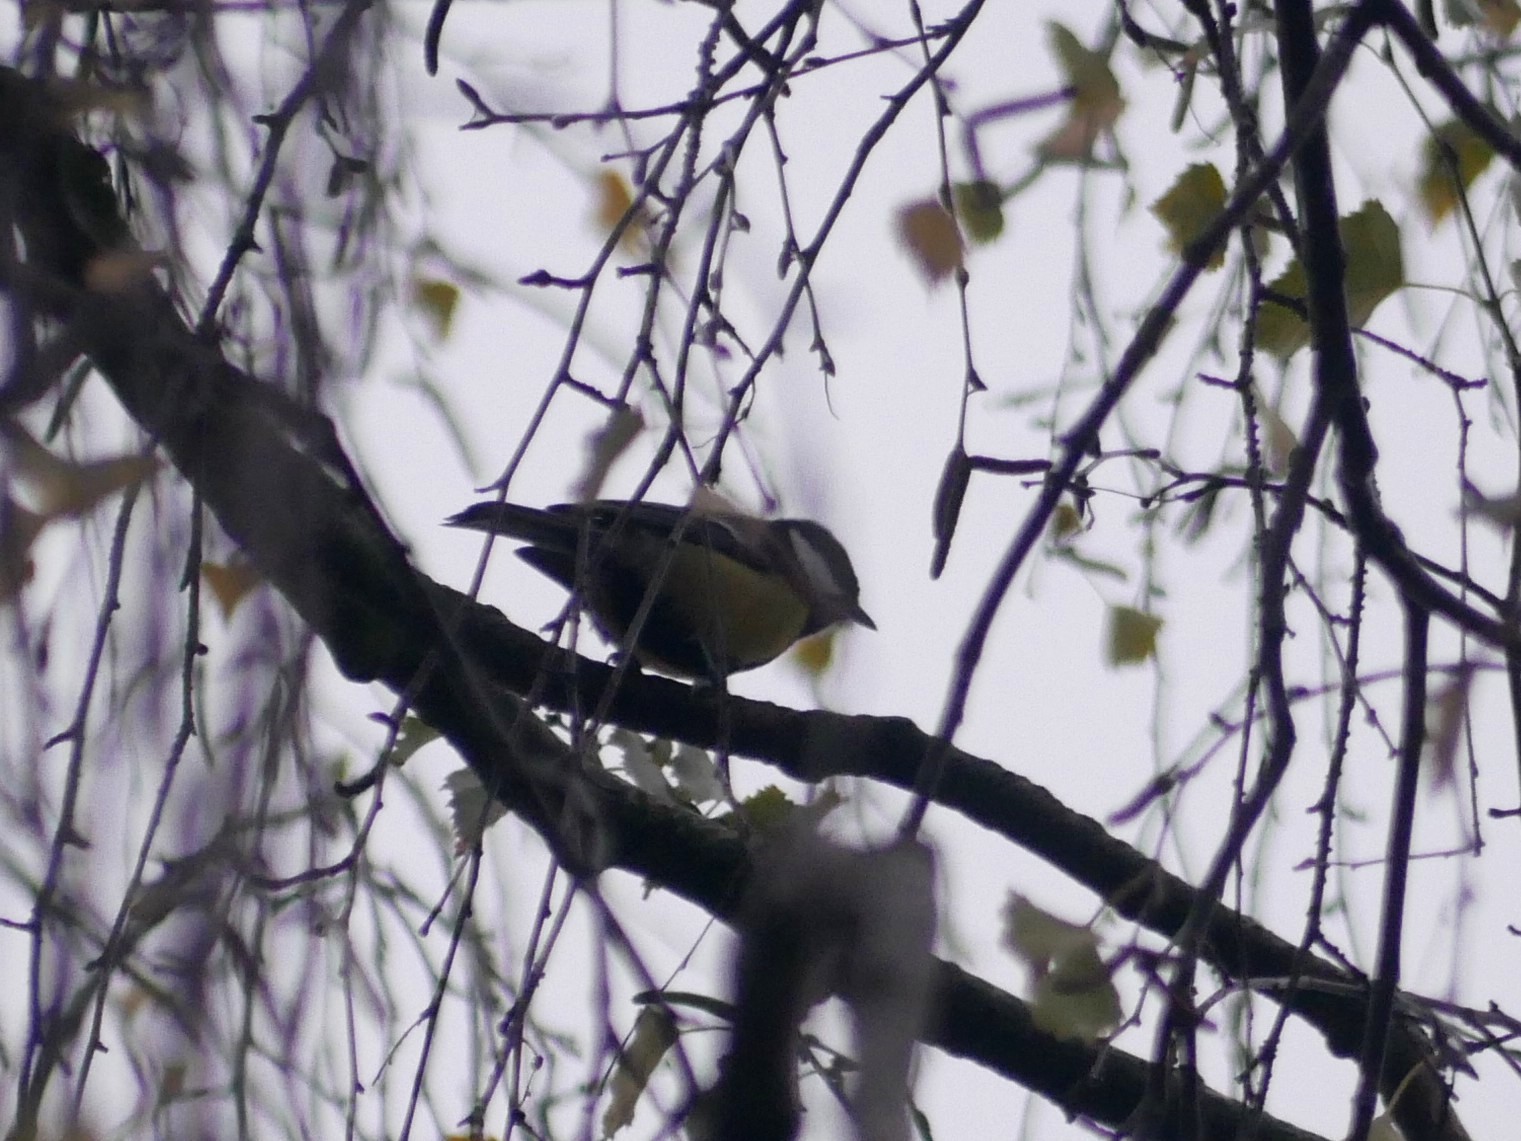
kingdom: Animalia
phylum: Chordata
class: Aves
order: Passeriformes
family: Paridae
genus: Parus
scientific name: Parus major
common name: Great tit
